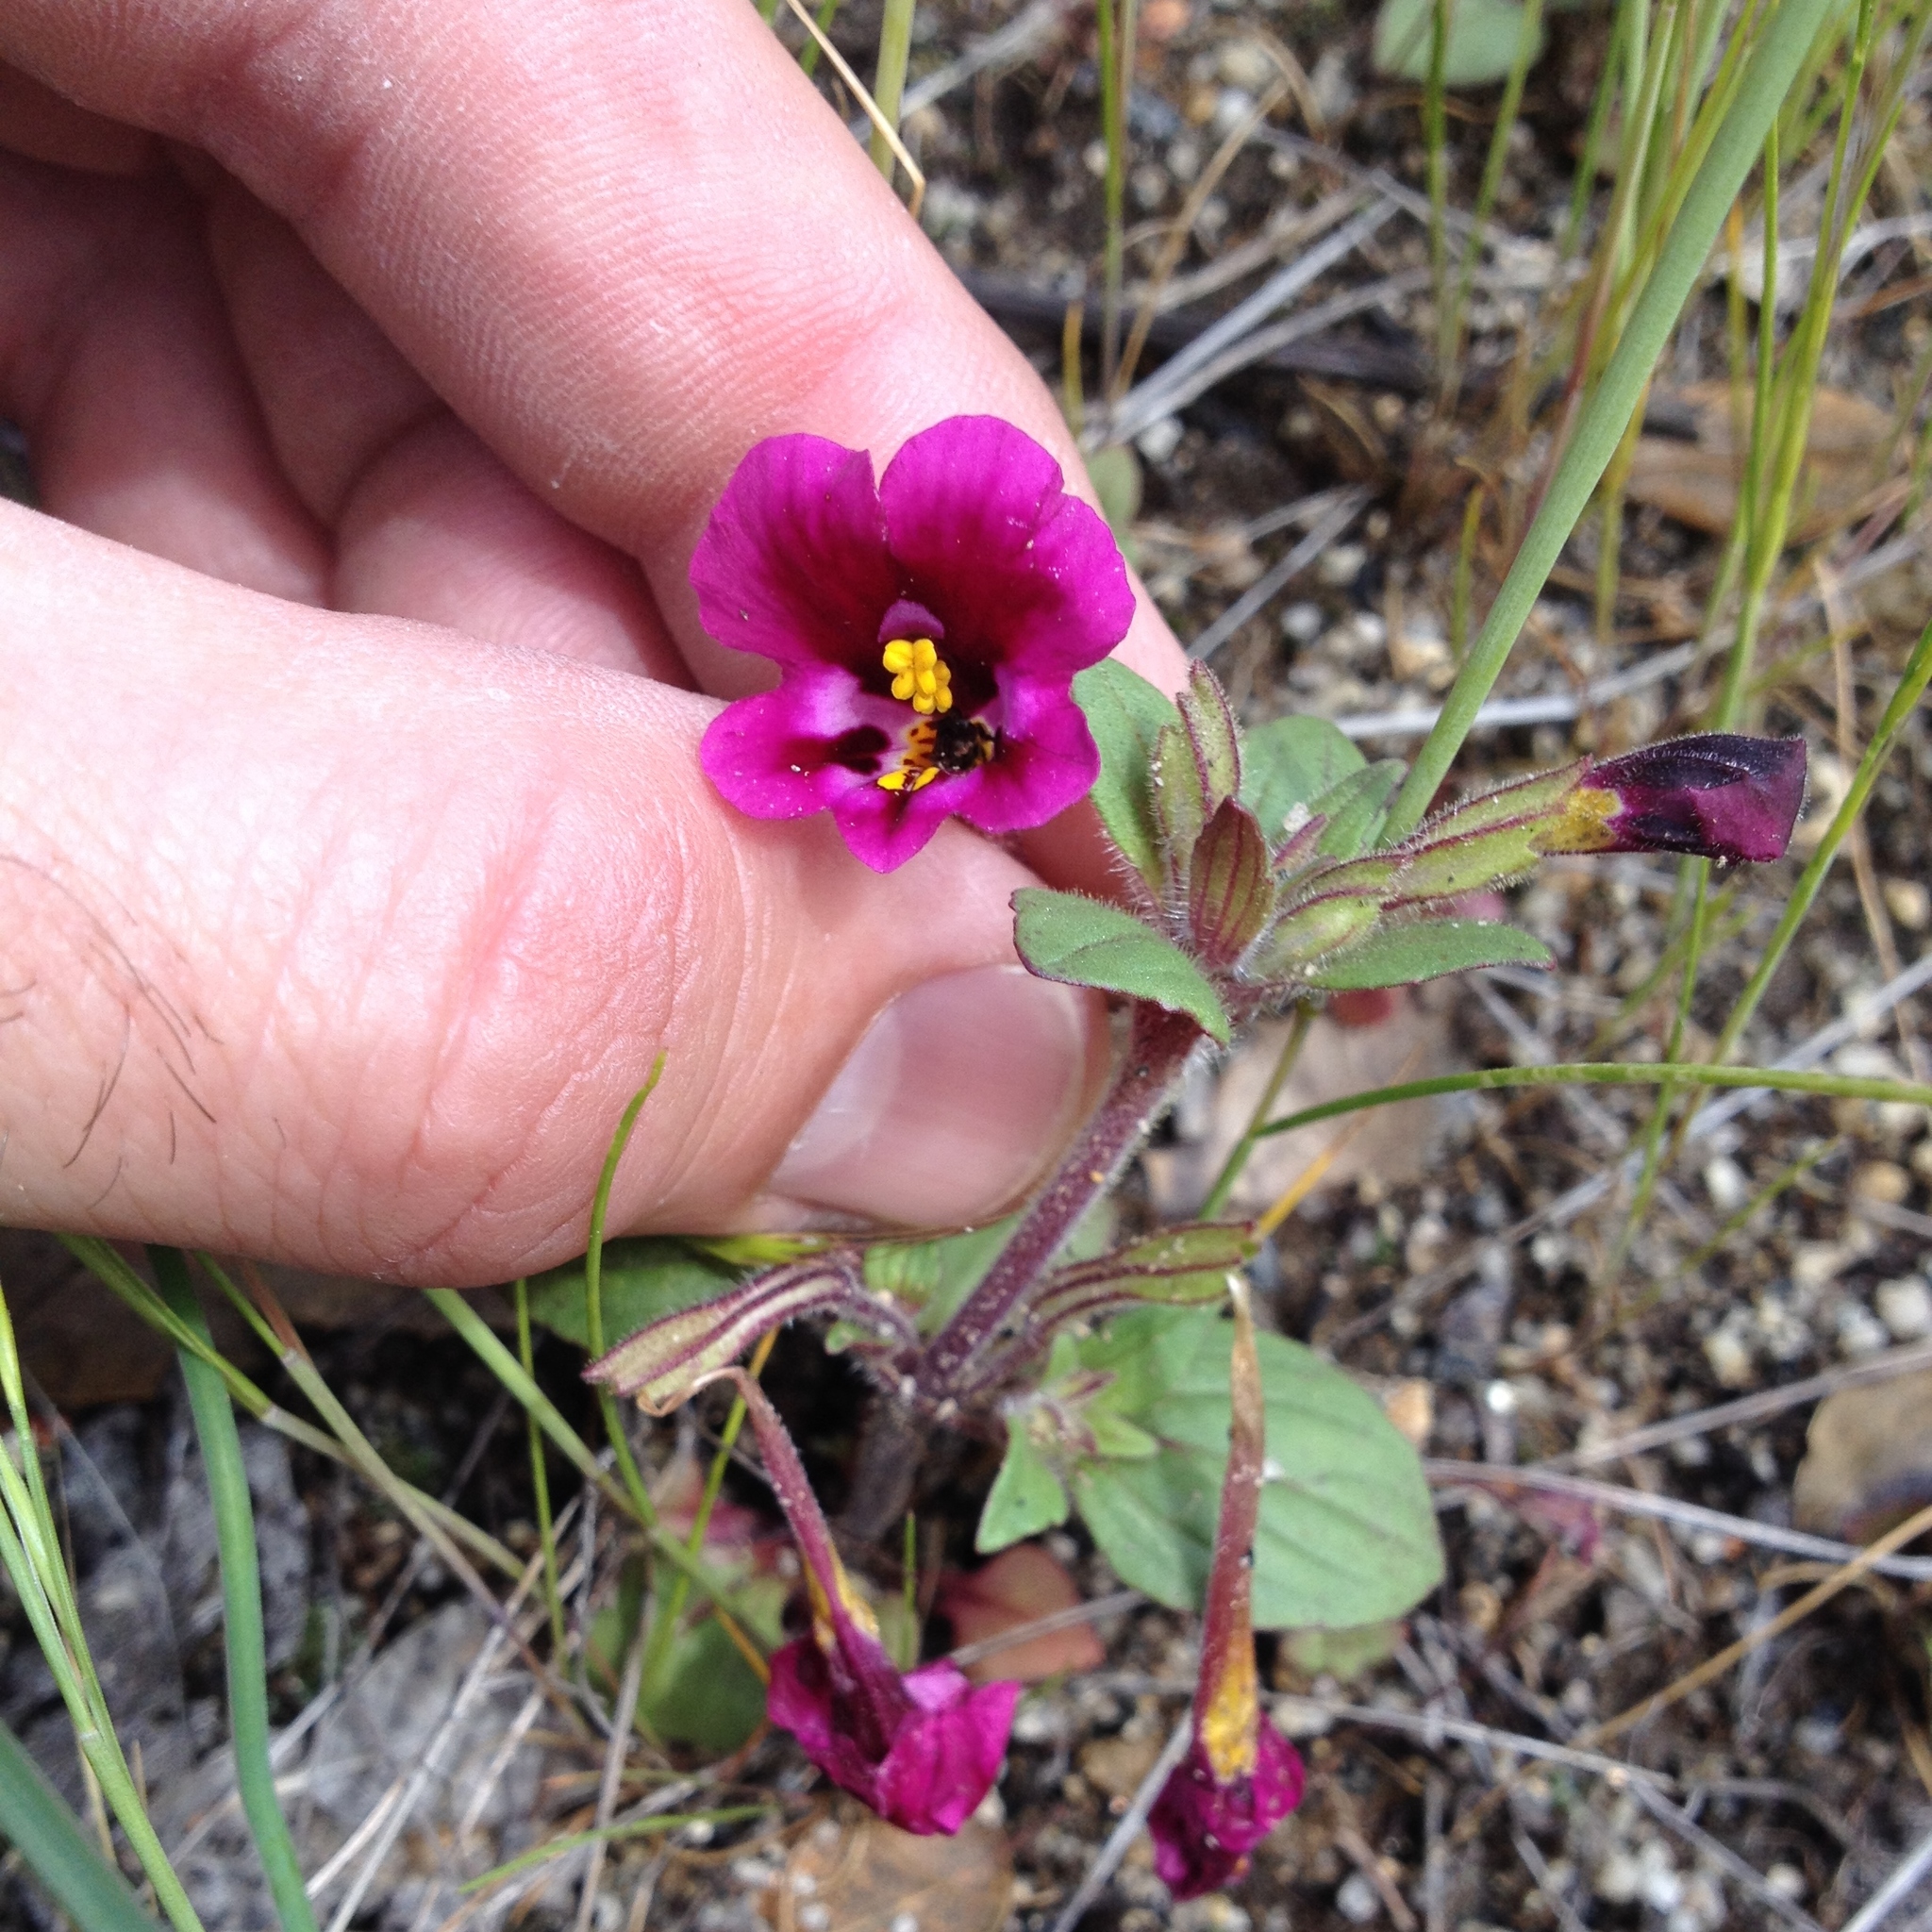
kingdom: Plantae
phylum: Tracheophyta
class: Magnoliopsida
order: Lamiales
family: Phrymaceae
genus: Diplacus
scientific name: Diplacus kelloggii
